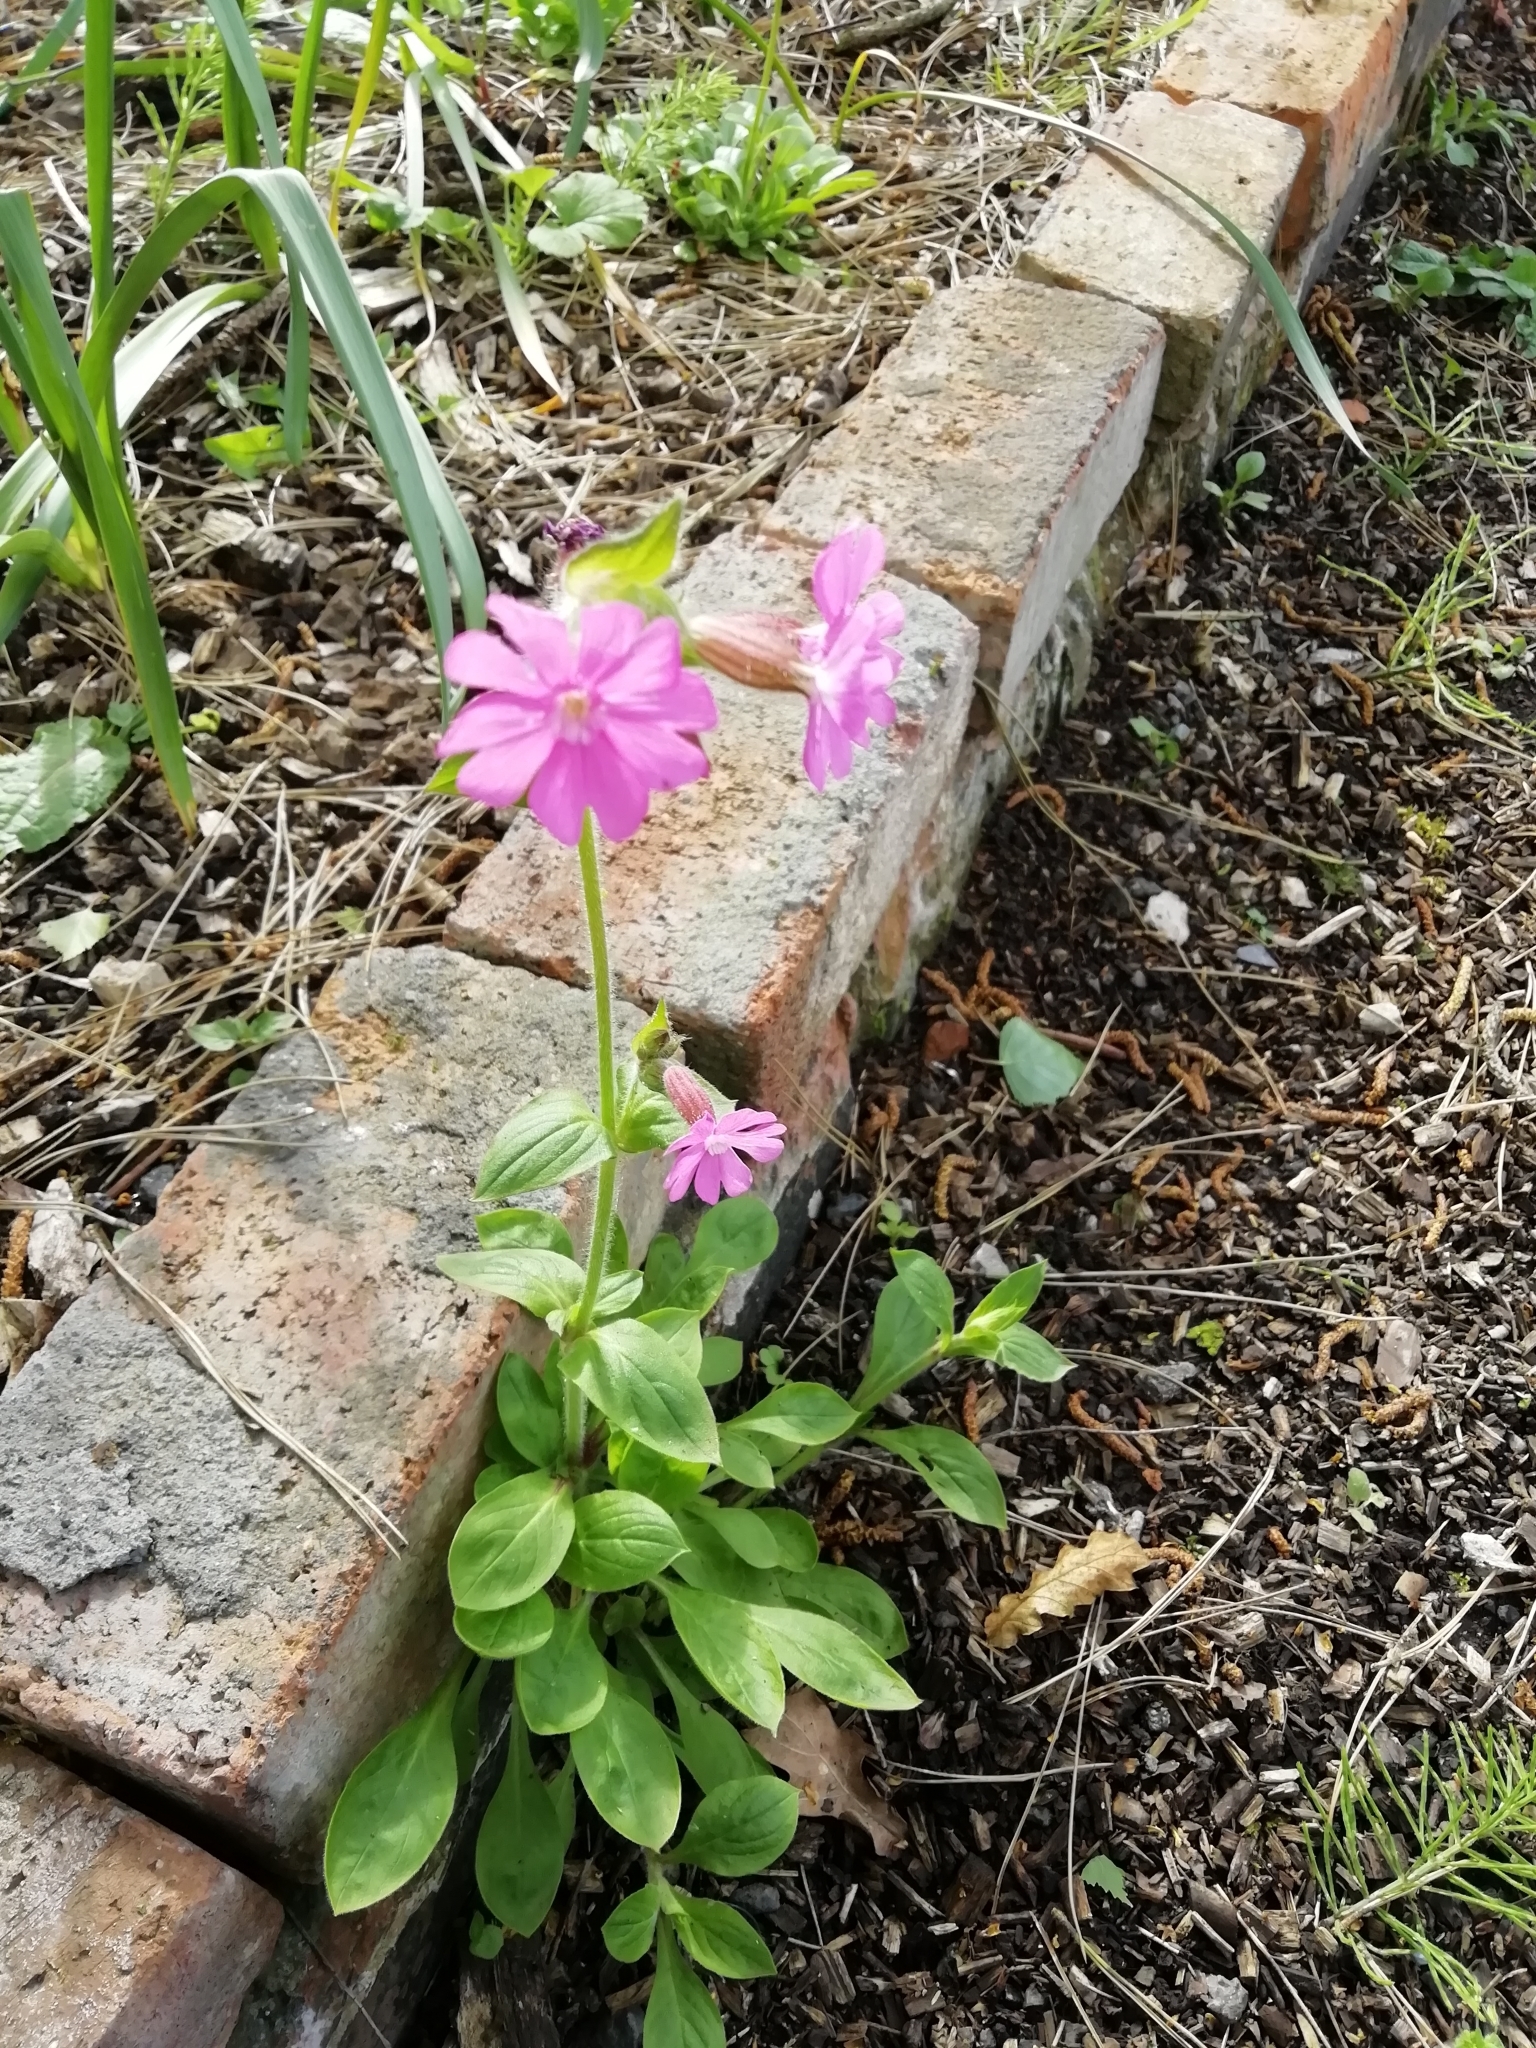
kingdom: Plantae
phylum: Tracheophyta
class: Magnoliopsida
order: Caryophyllales
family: Caryophyllaceae
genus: Silene
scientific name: Silene dioica
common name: Red campion
